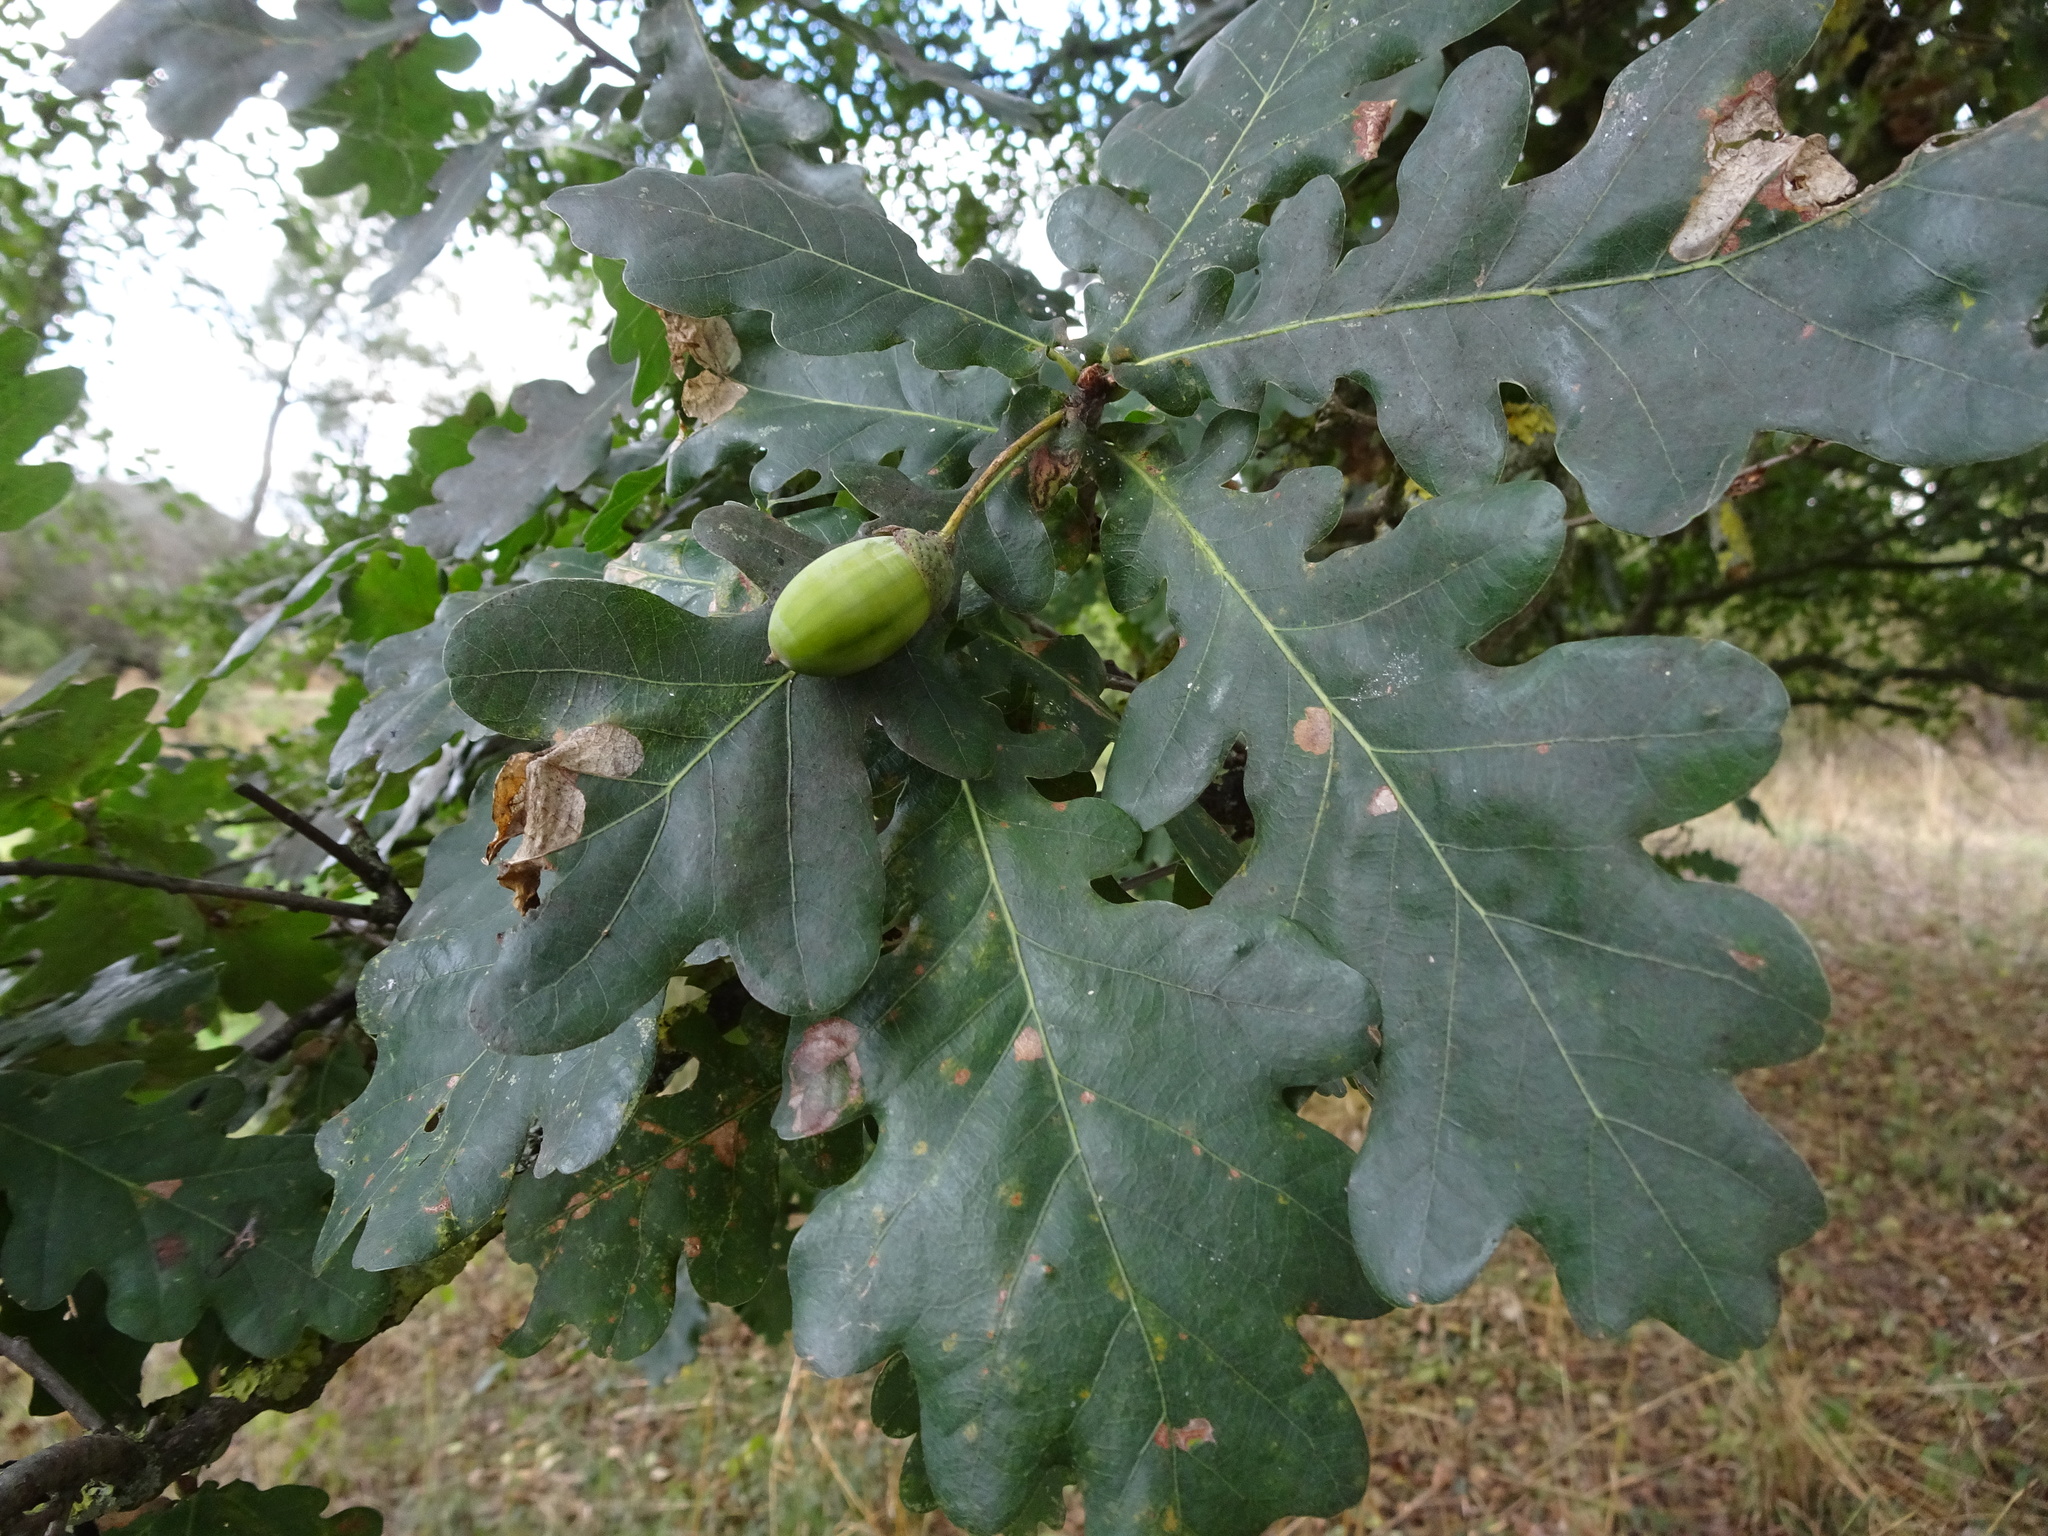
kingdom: Plantae
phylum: Tracheophyta
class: Magnoliopsida
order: Fagales
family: Fagaceae
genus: Quercus
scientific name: Quercus robur
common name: Pedunculate oak
